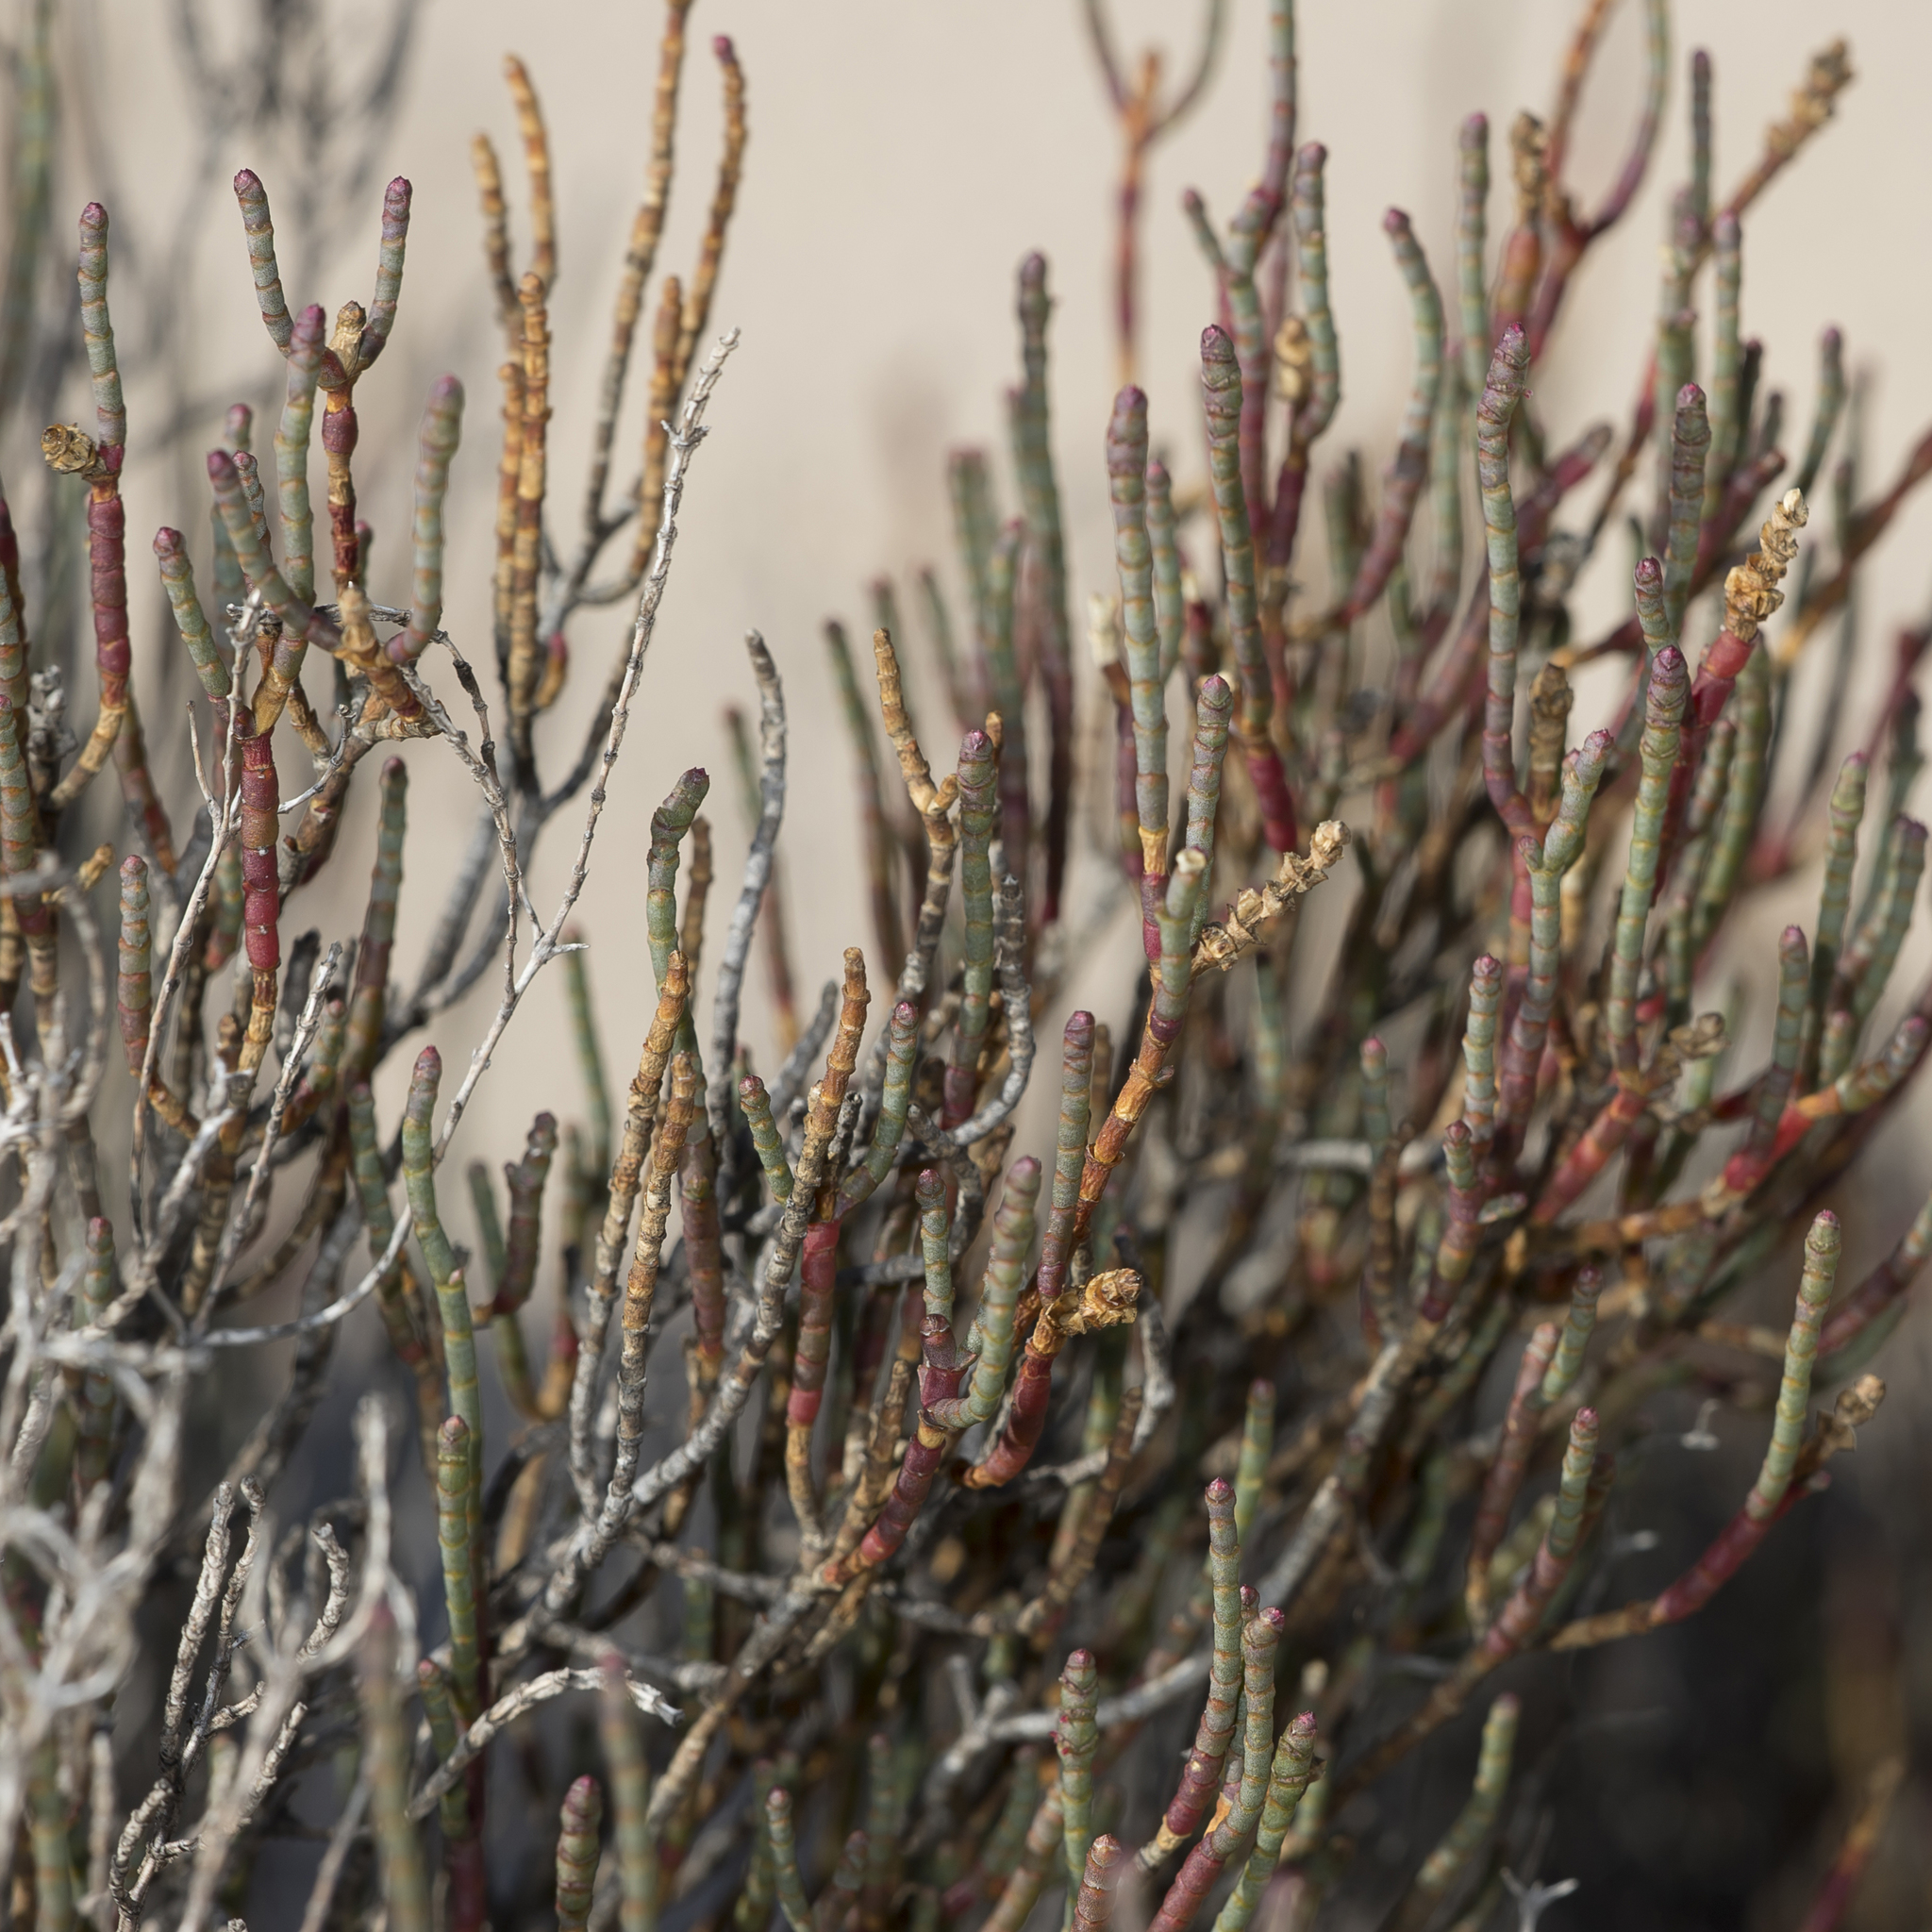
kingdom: Plantae
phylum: Tracheophyta
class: Magnoliopsida
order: Caryophyllales
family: Amaranthaceae
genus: Tecticornia
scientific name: Tecticornia lylei
